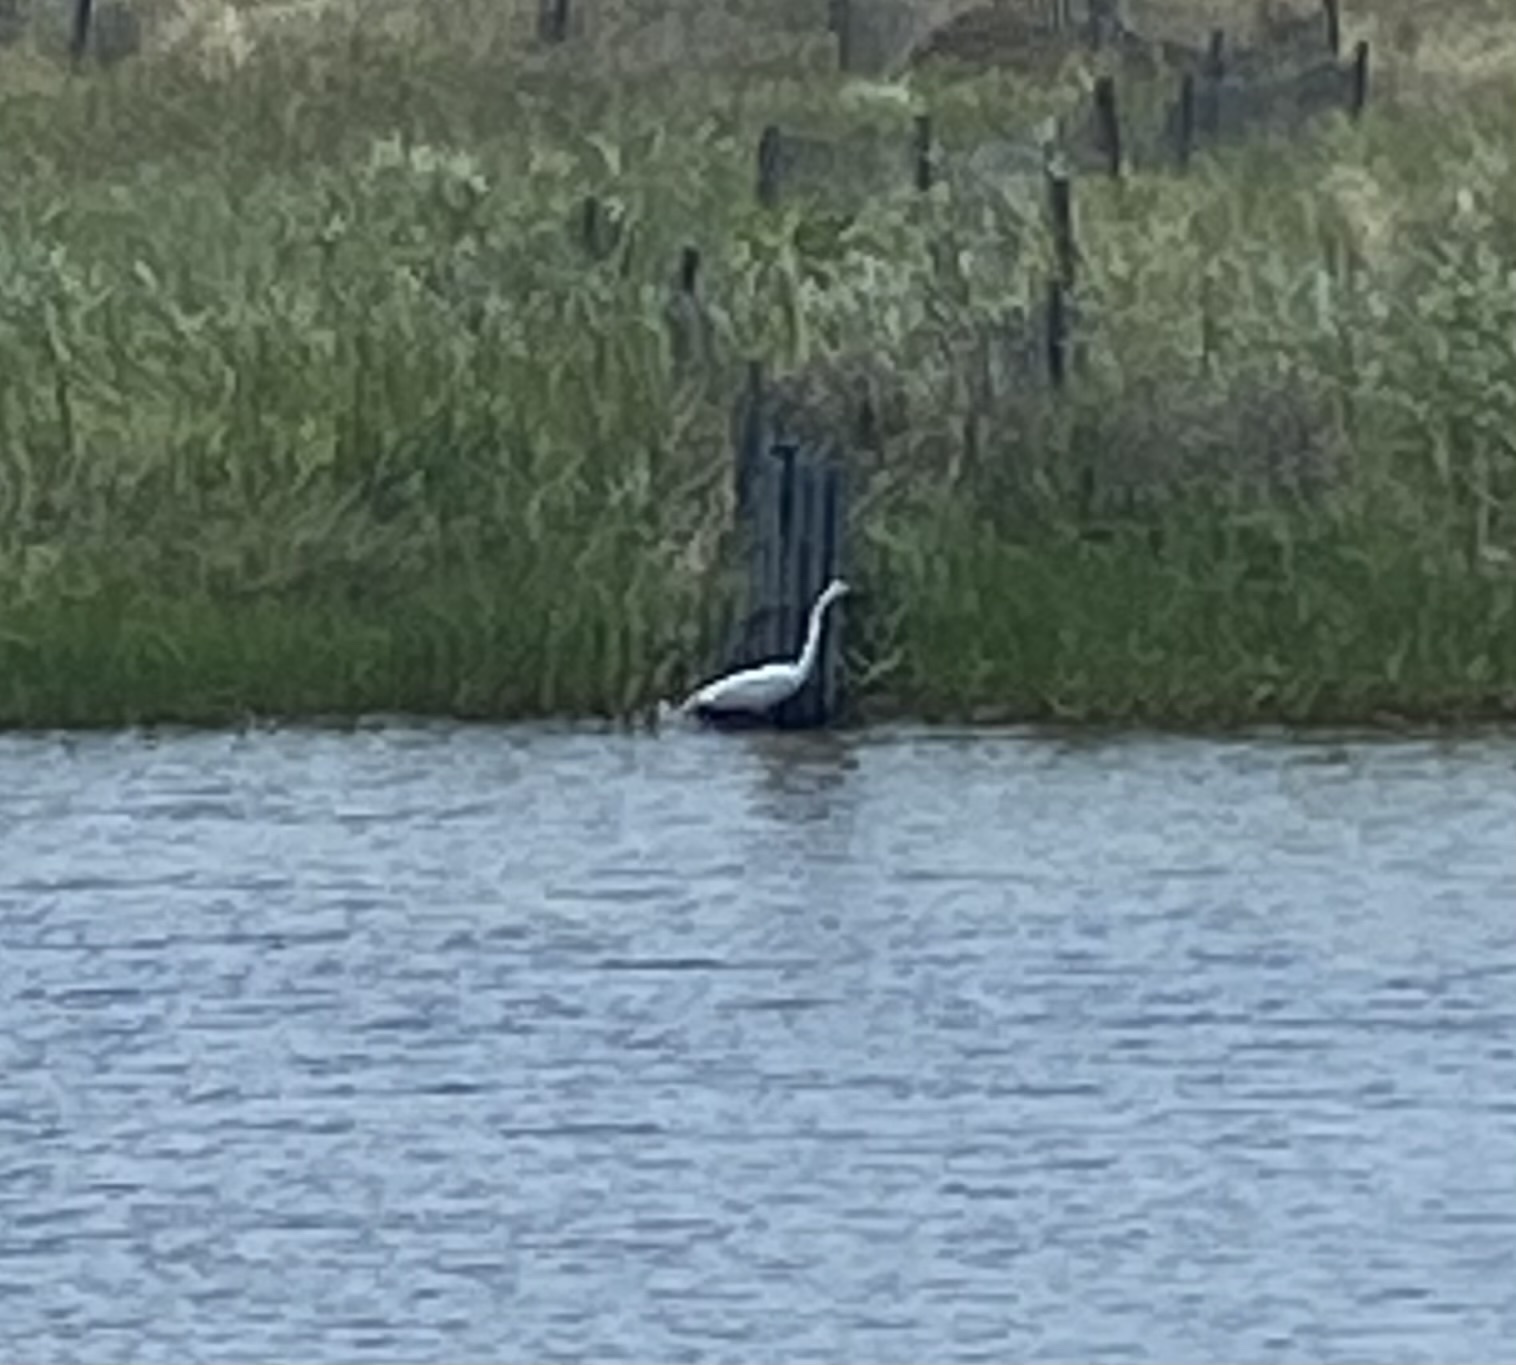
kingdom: Animalia
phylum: Chordata
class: Aves
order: Pelecaniformes
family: Ardeidae
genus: Ardea
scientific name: Ardea alba
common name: Great egret
